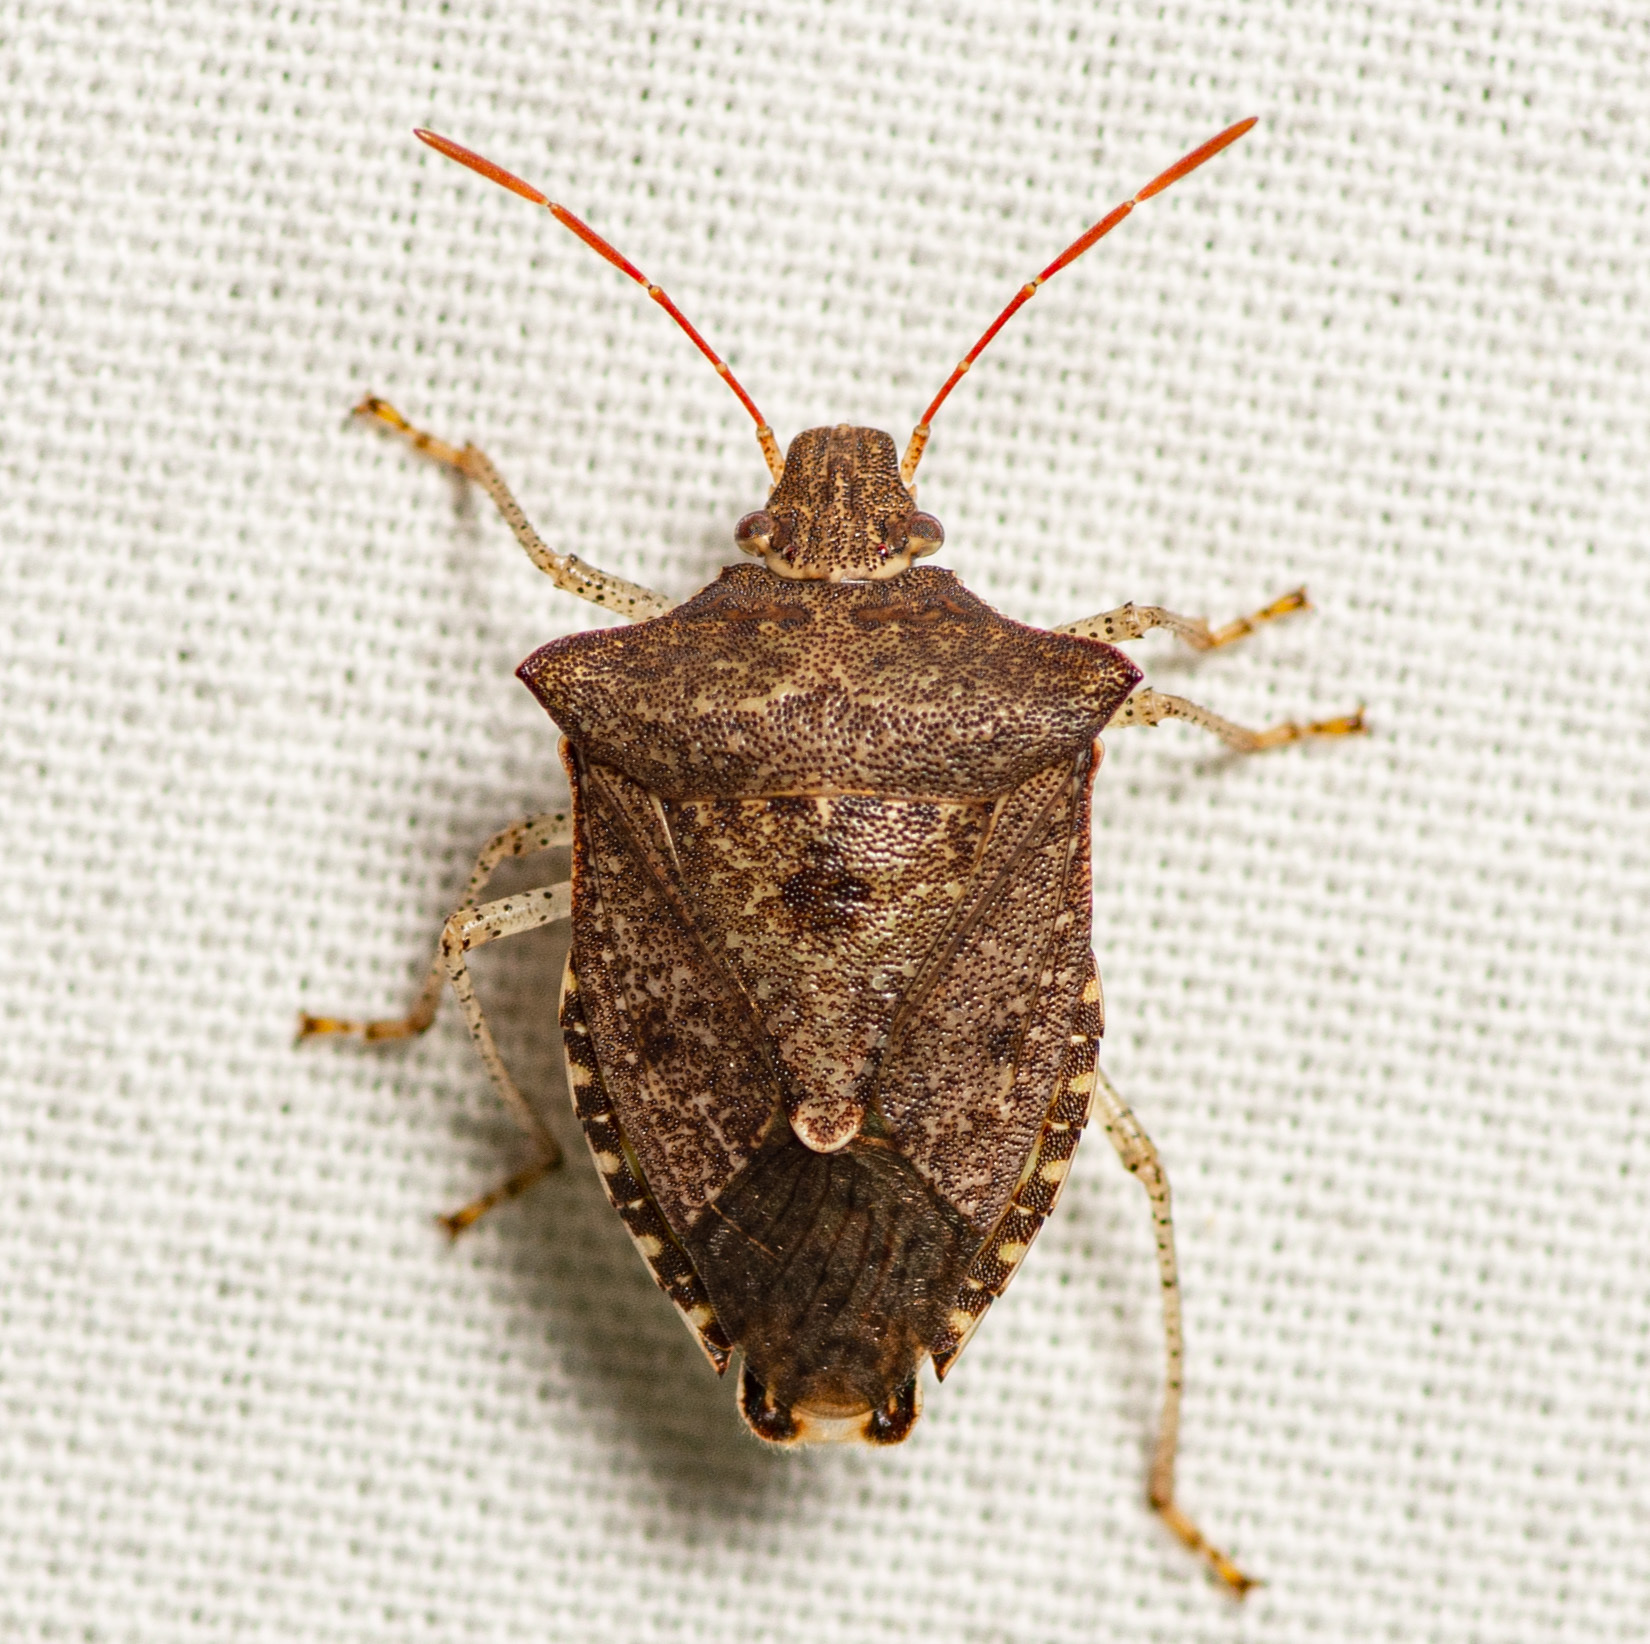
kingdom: Animalia
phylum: Arthropoda
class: Insecta
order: Hemiptera
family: Pentatomidae
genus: Euschistus
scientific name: Euschistus tristigmus
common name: Dusky stink bug
